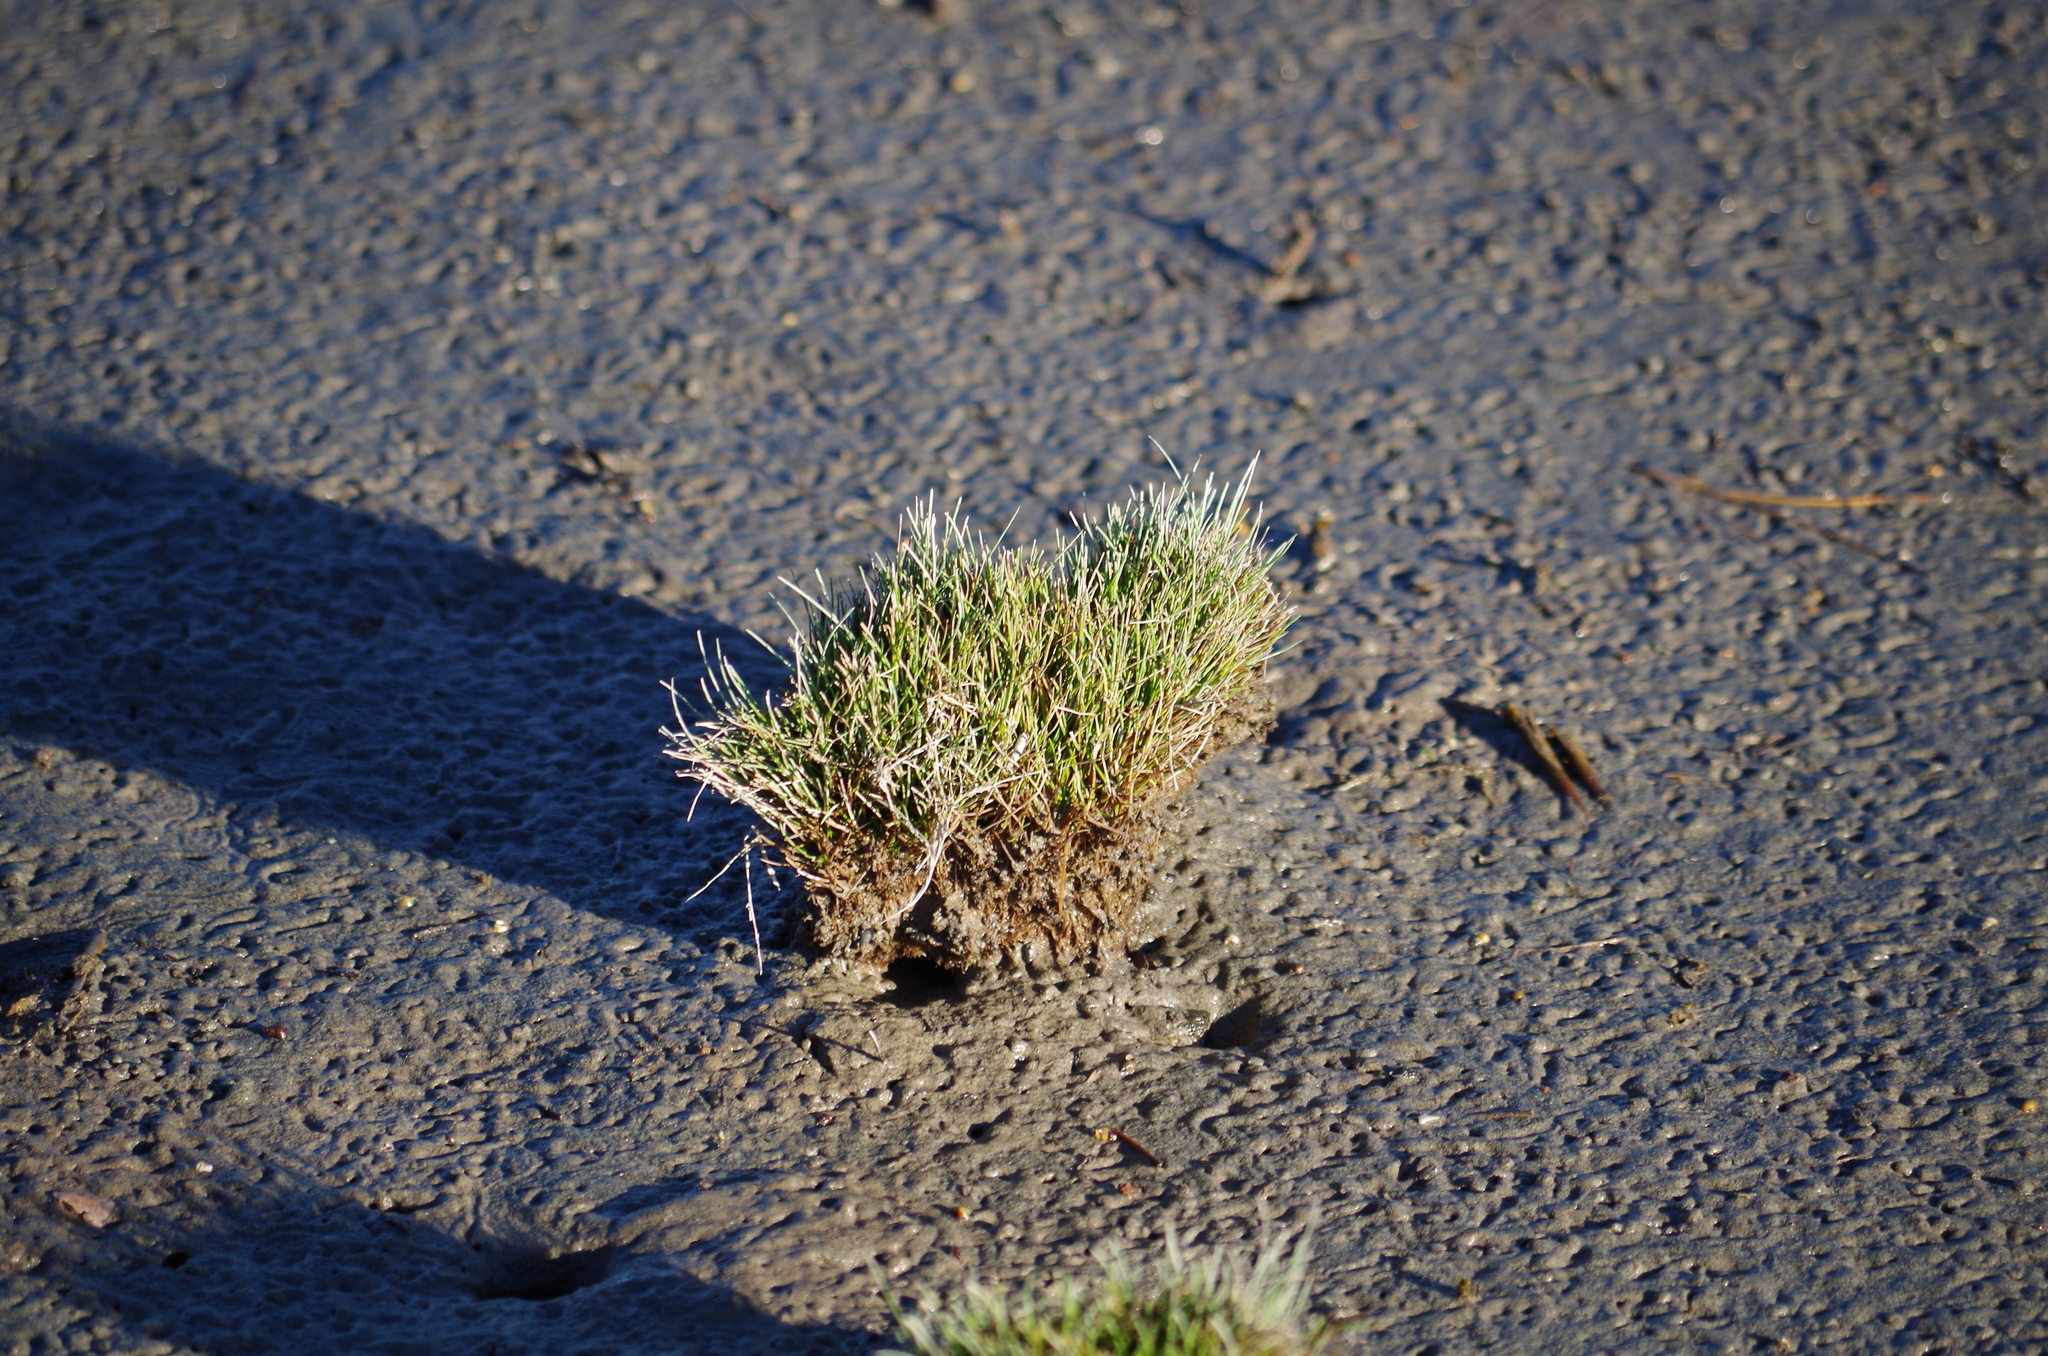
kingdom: Plantae
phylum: Tracheophyta
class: Liliopsida
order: Poales
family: Cyperaceae
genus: Isolepis
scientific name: Isolepis cernua
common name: Slender club-rush
